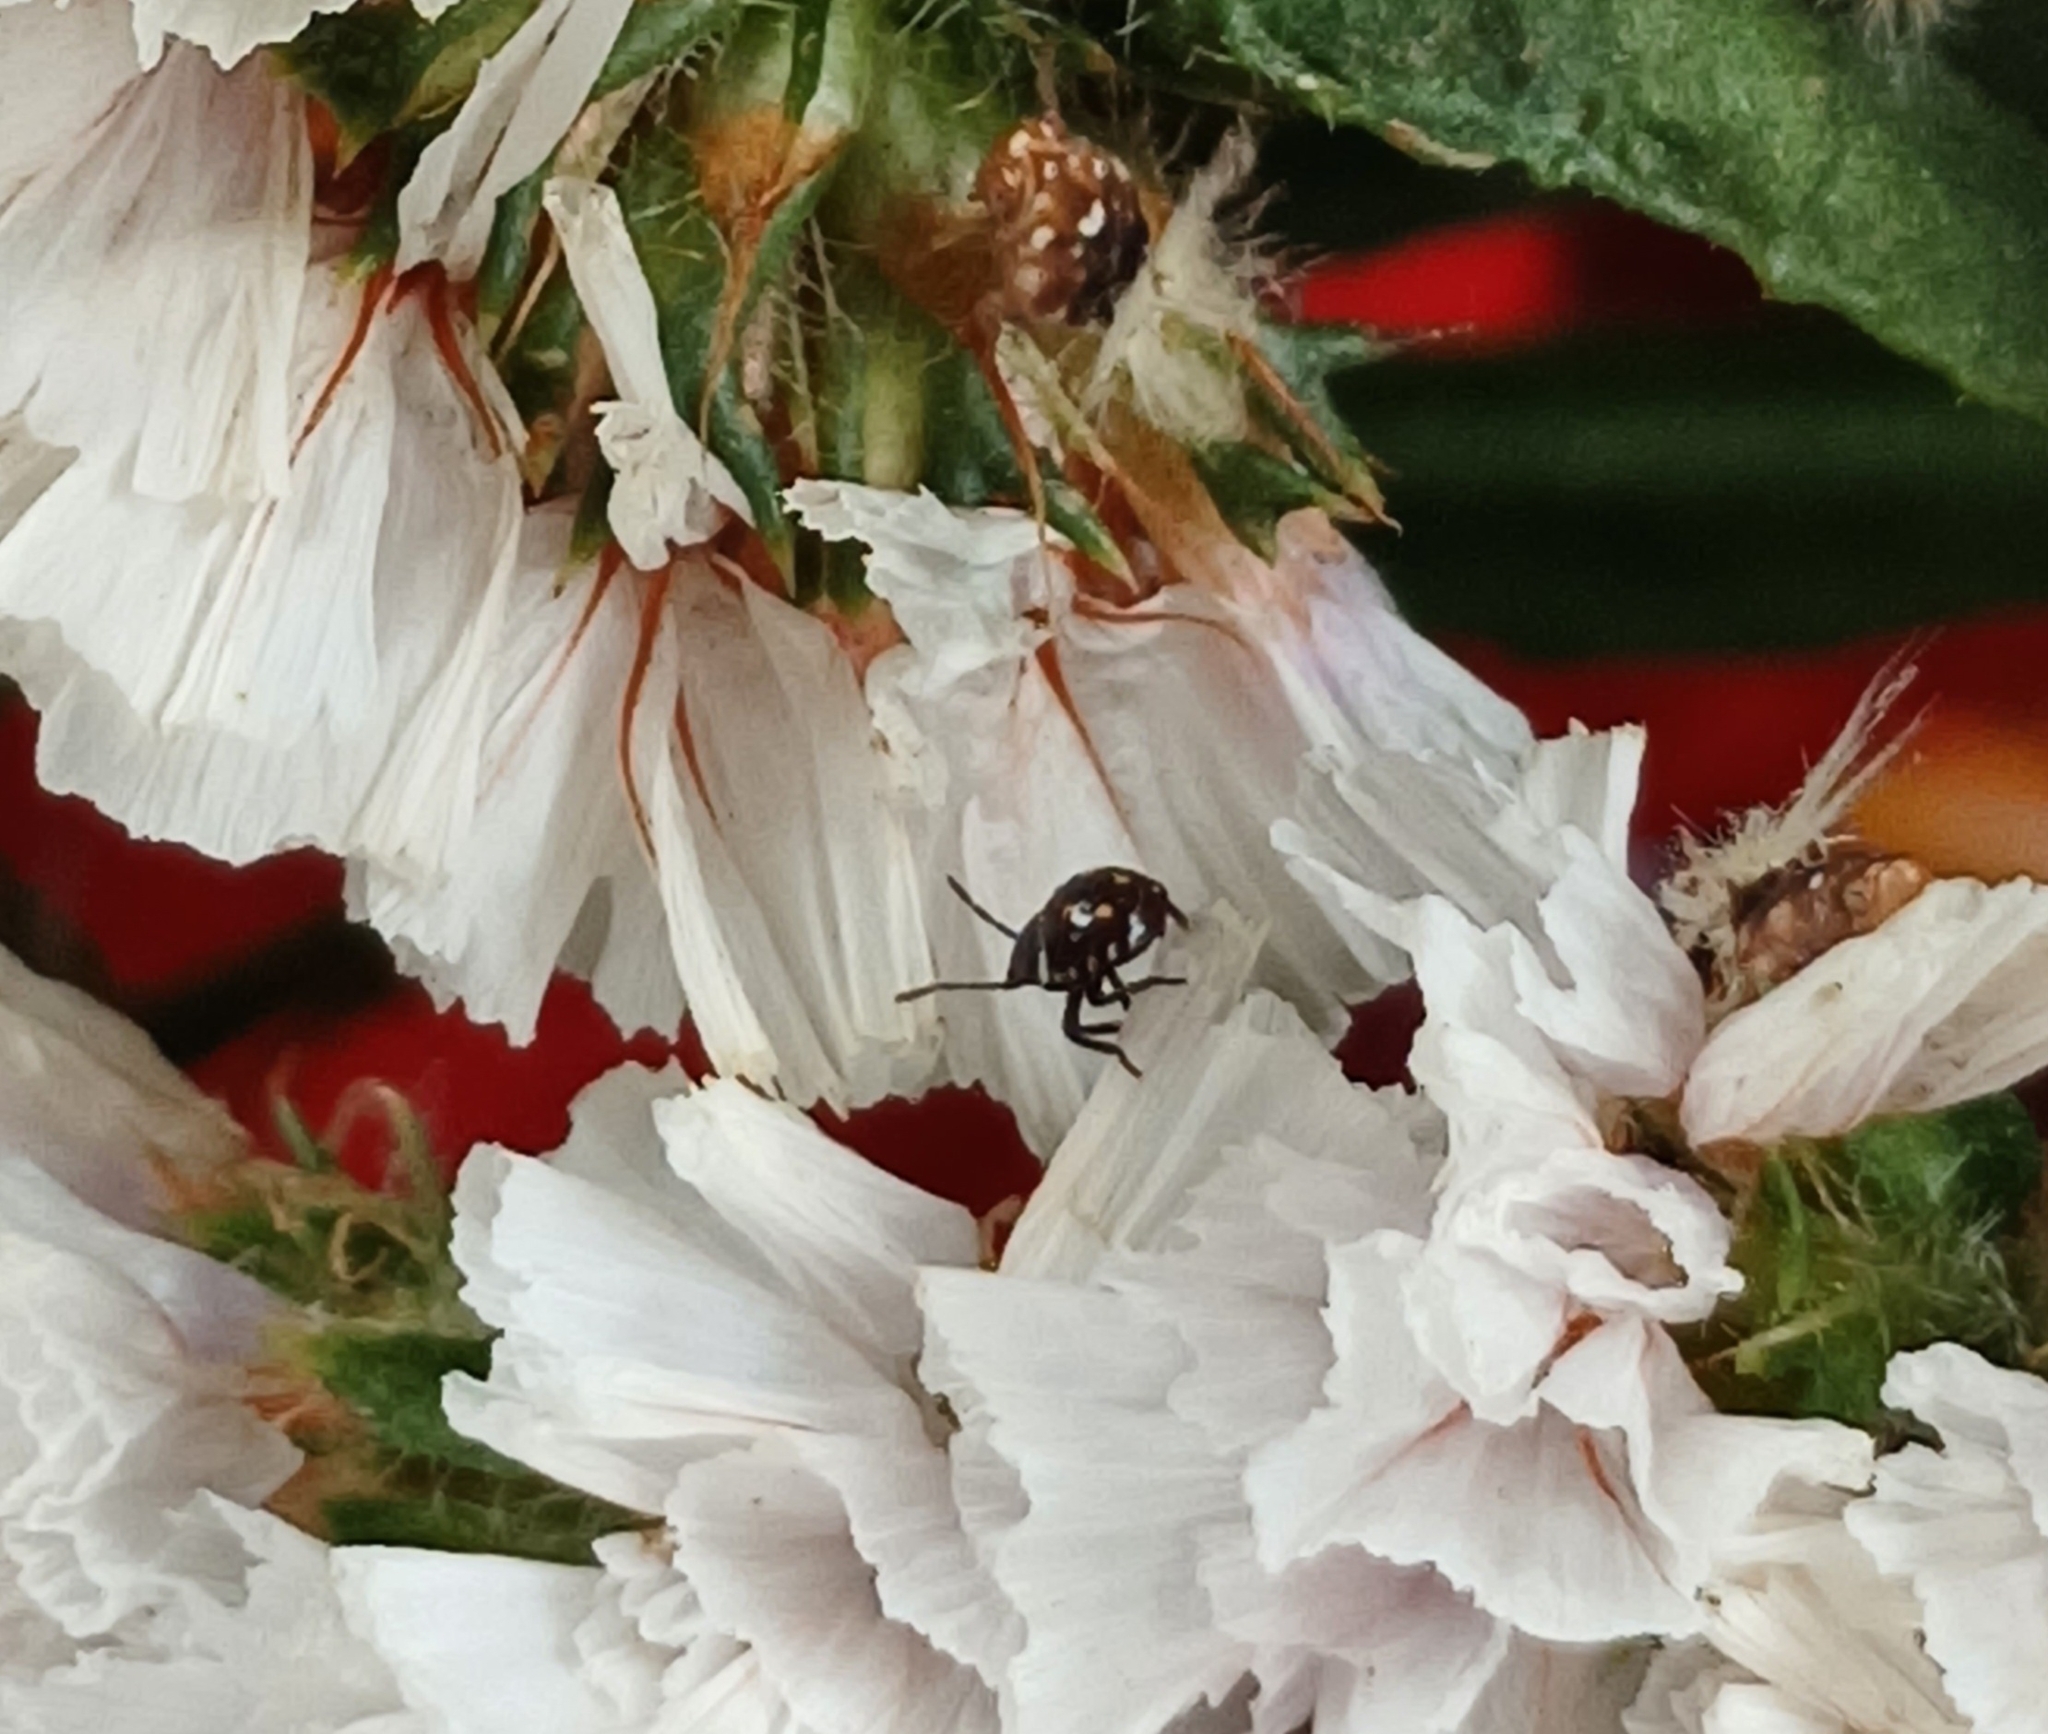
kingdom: Animalia
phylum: Arthropoda
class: Insecta
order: Hemiptera
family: Pentatomidae
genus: Nezara
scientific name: Nezara viridula
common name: Southern green stink bug
